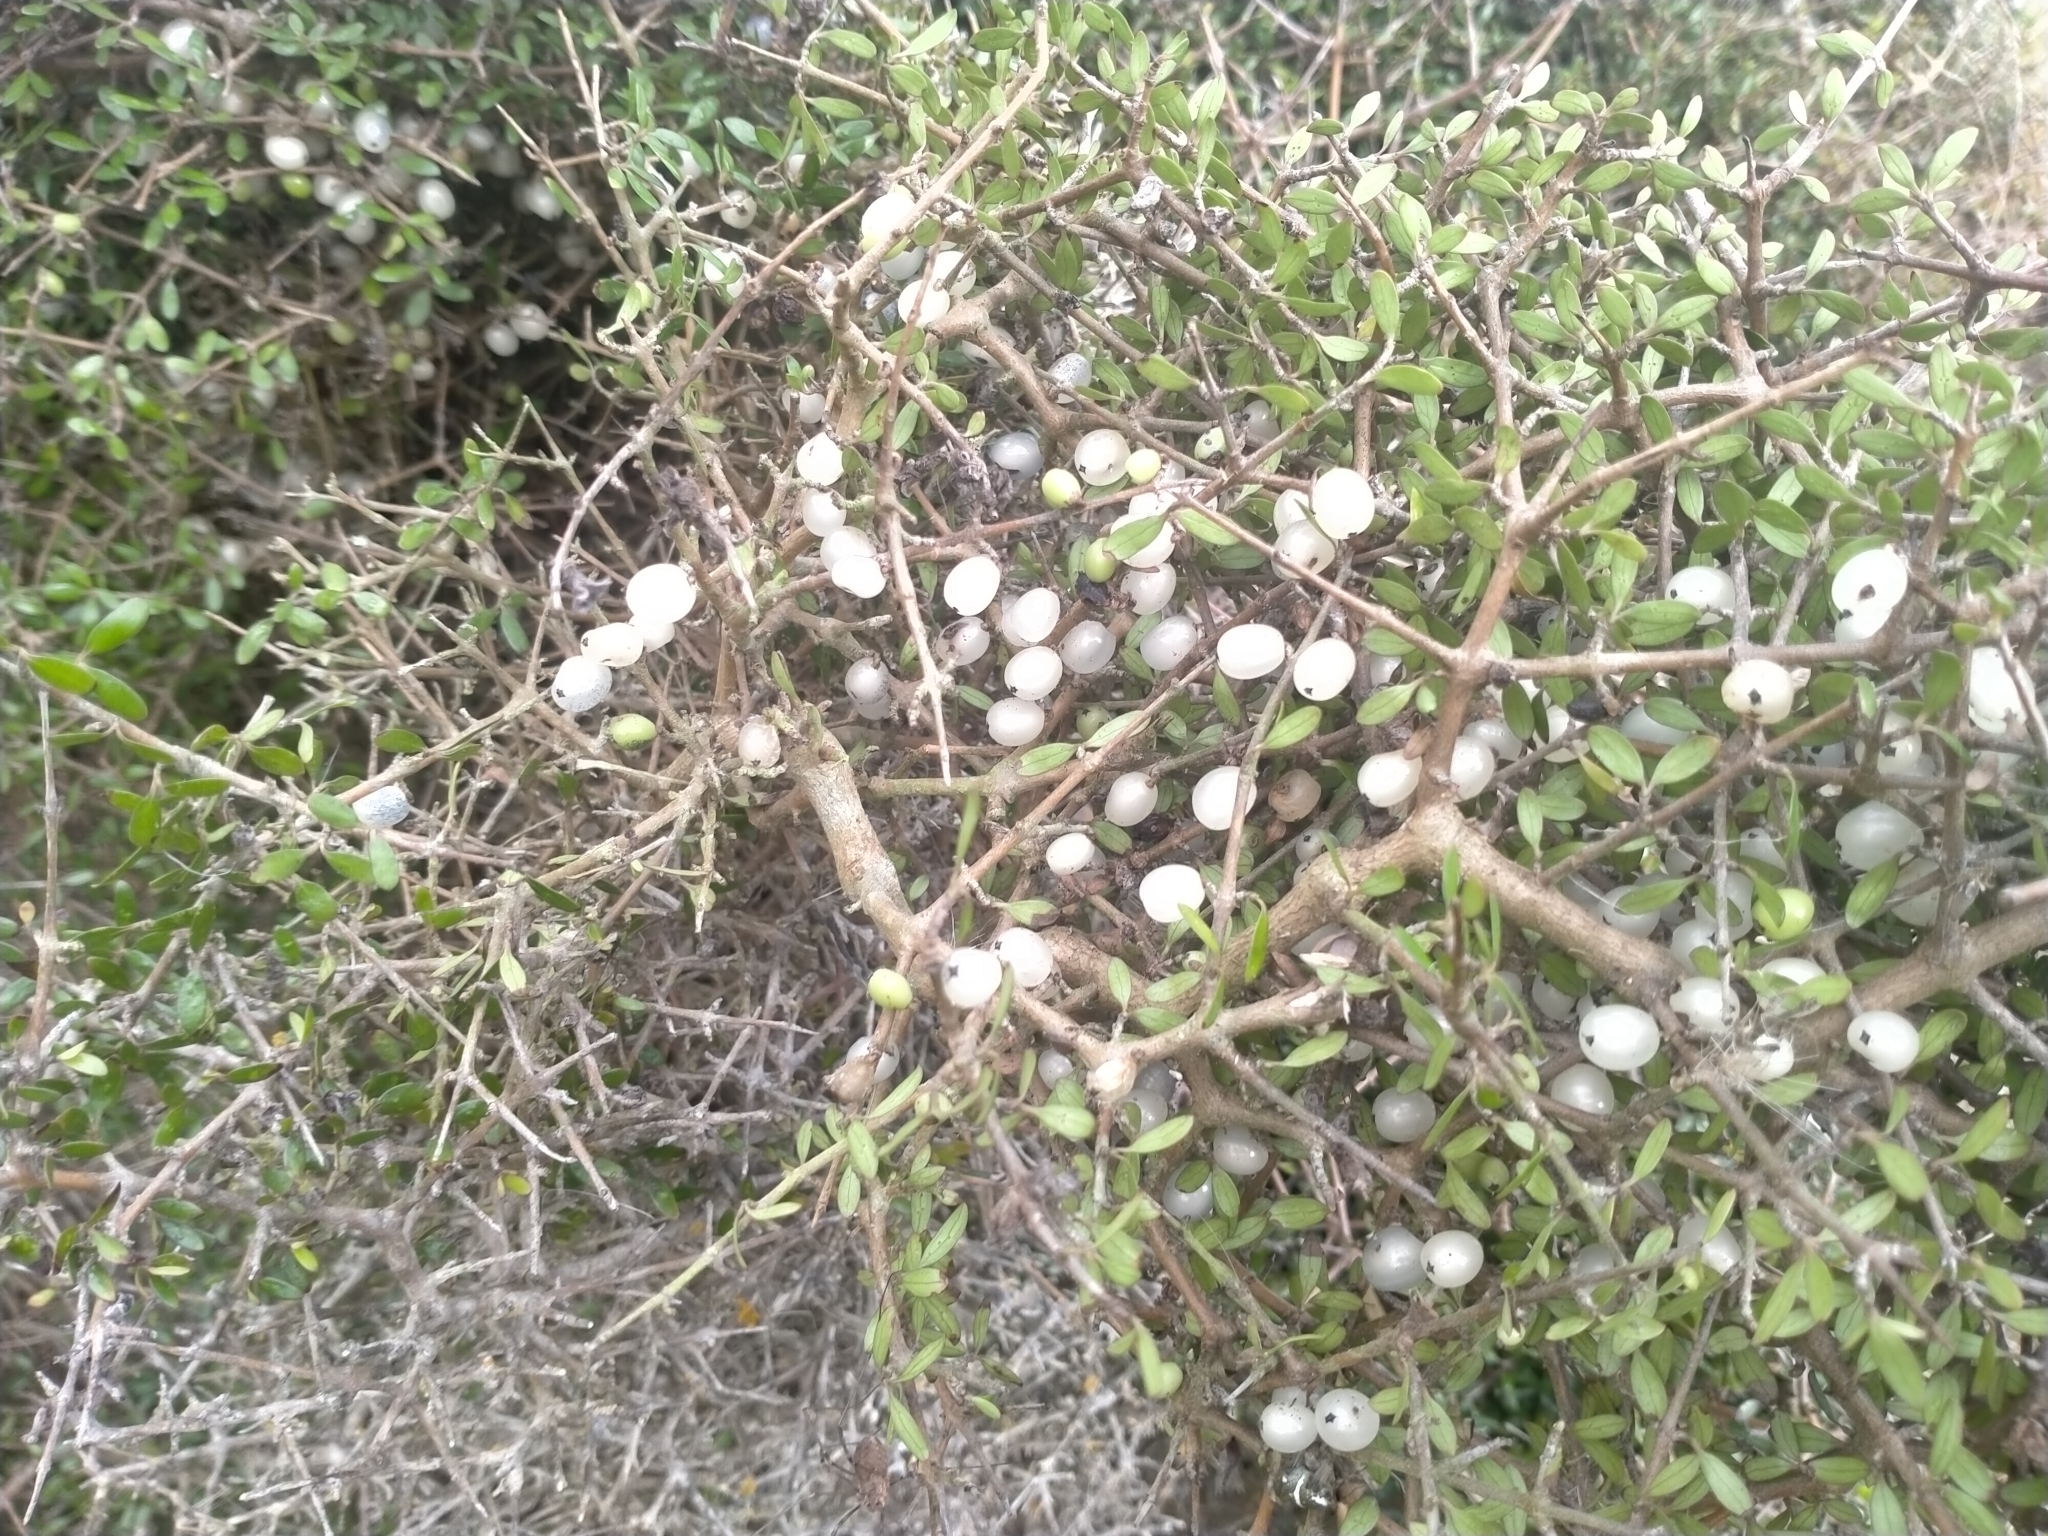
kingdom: Plantae
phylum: Tracheophyta
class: Magnoliopsida
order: Gentianales
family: Rubiaceae
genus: Coprosma
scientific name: Coprosma propinqua
